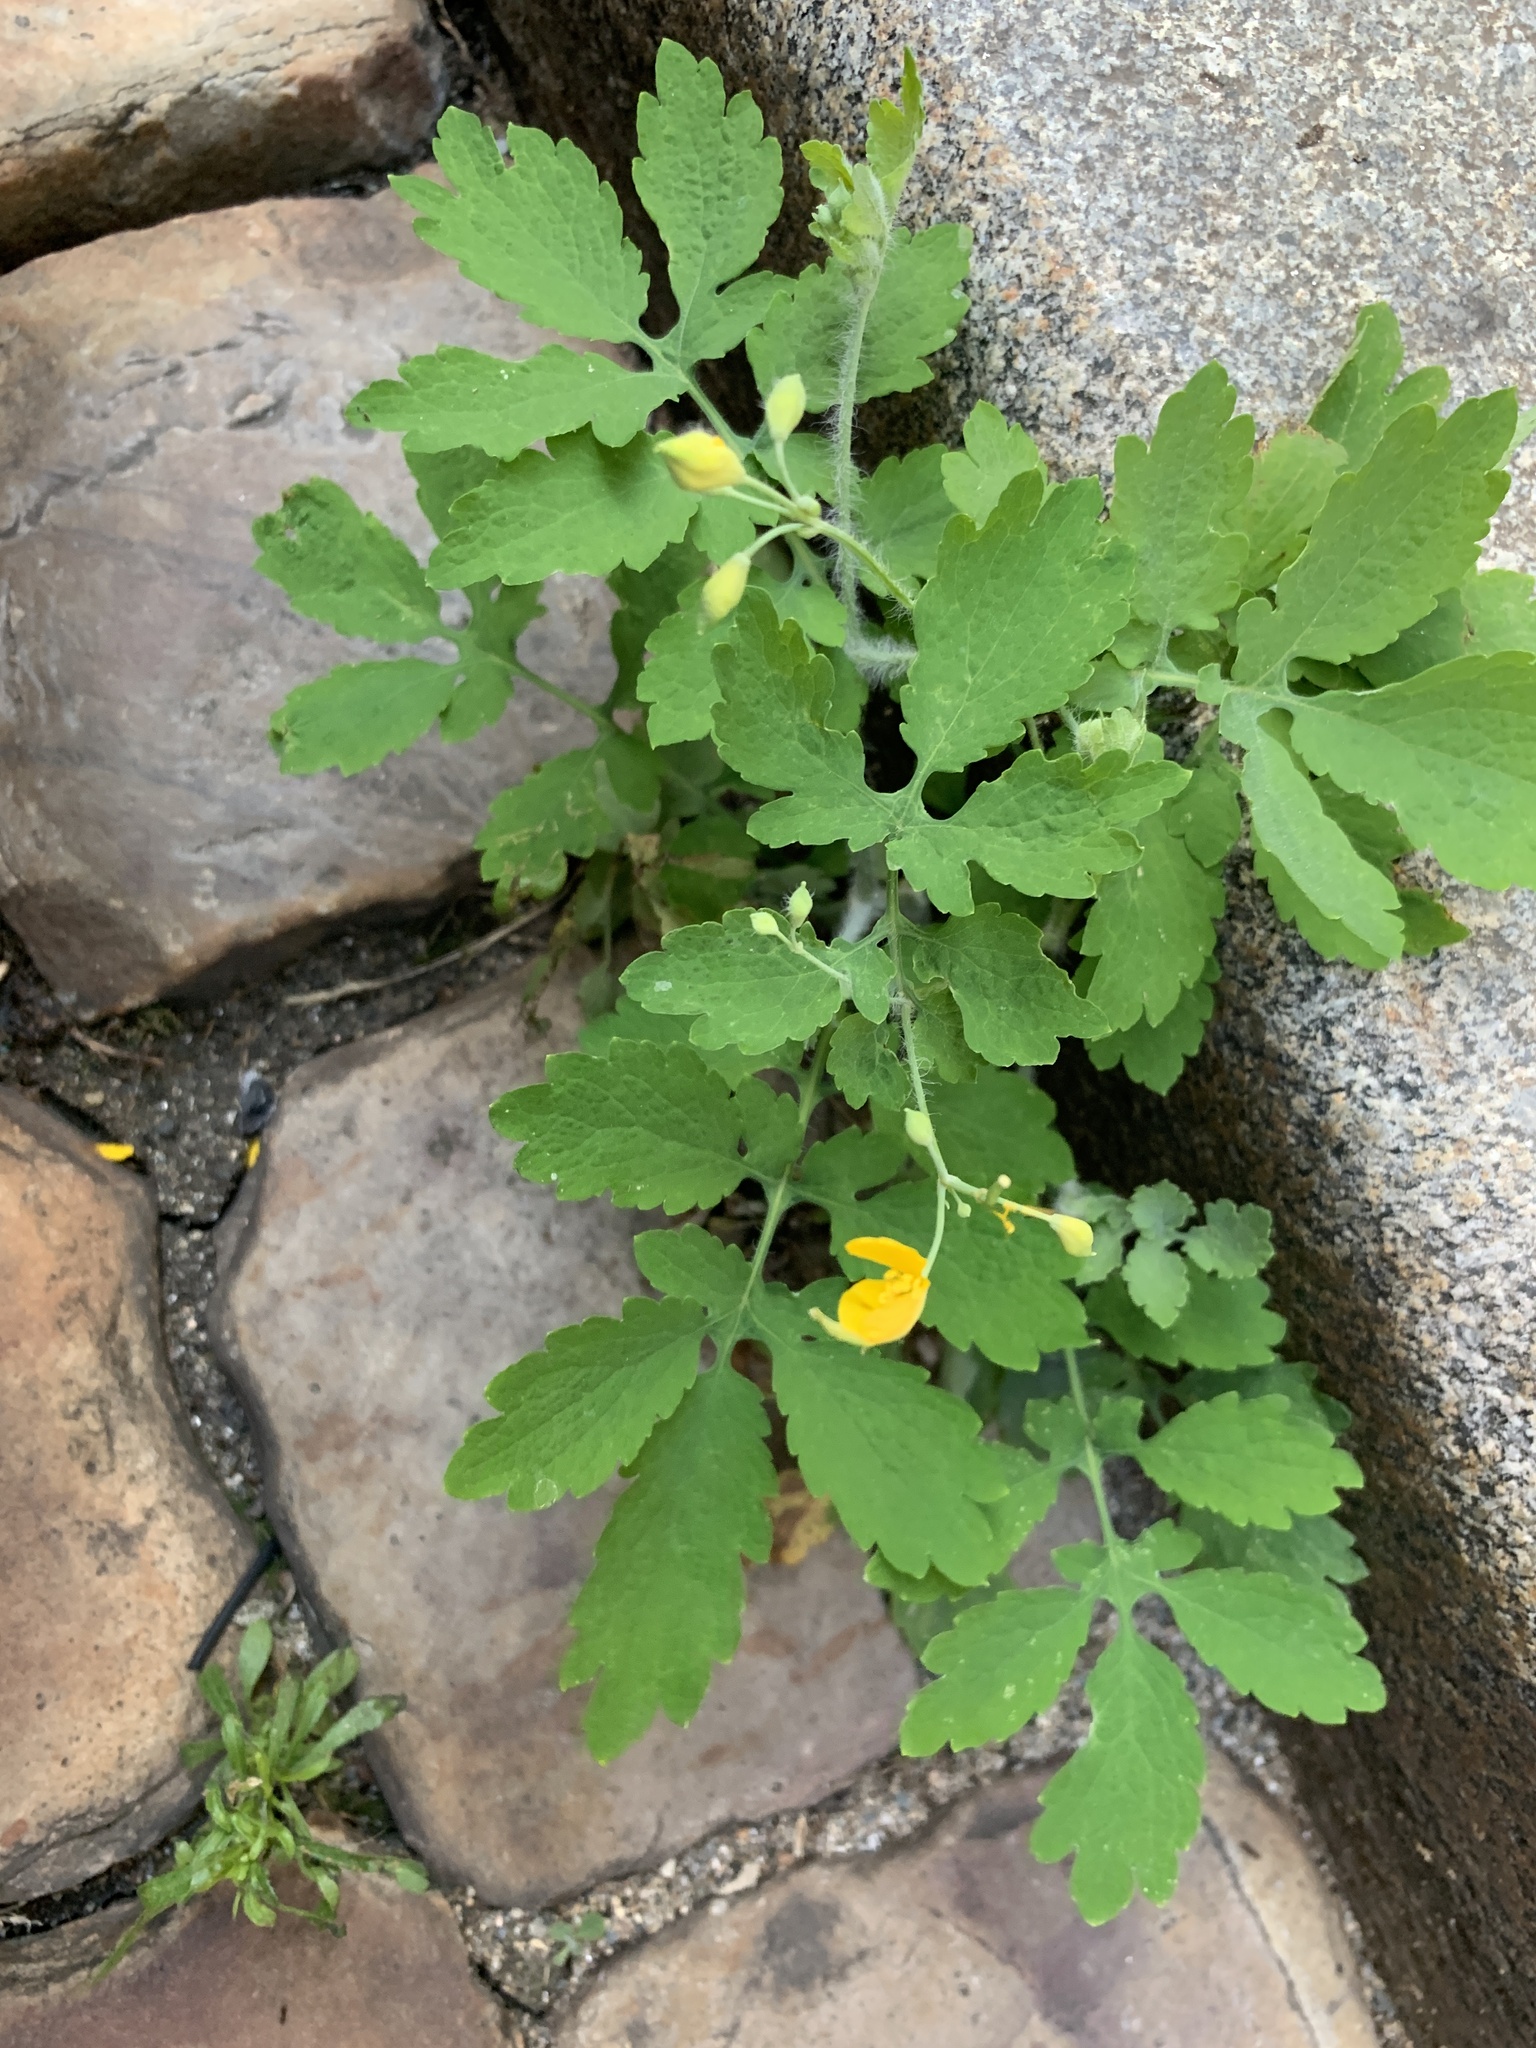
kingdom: Plantae
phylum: Tracheophyta
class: Magnoliopsida
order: Ranunculales
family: Papaveraceae
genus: Chelidonium
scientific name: Chelidonium majus
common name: Greater celandine
